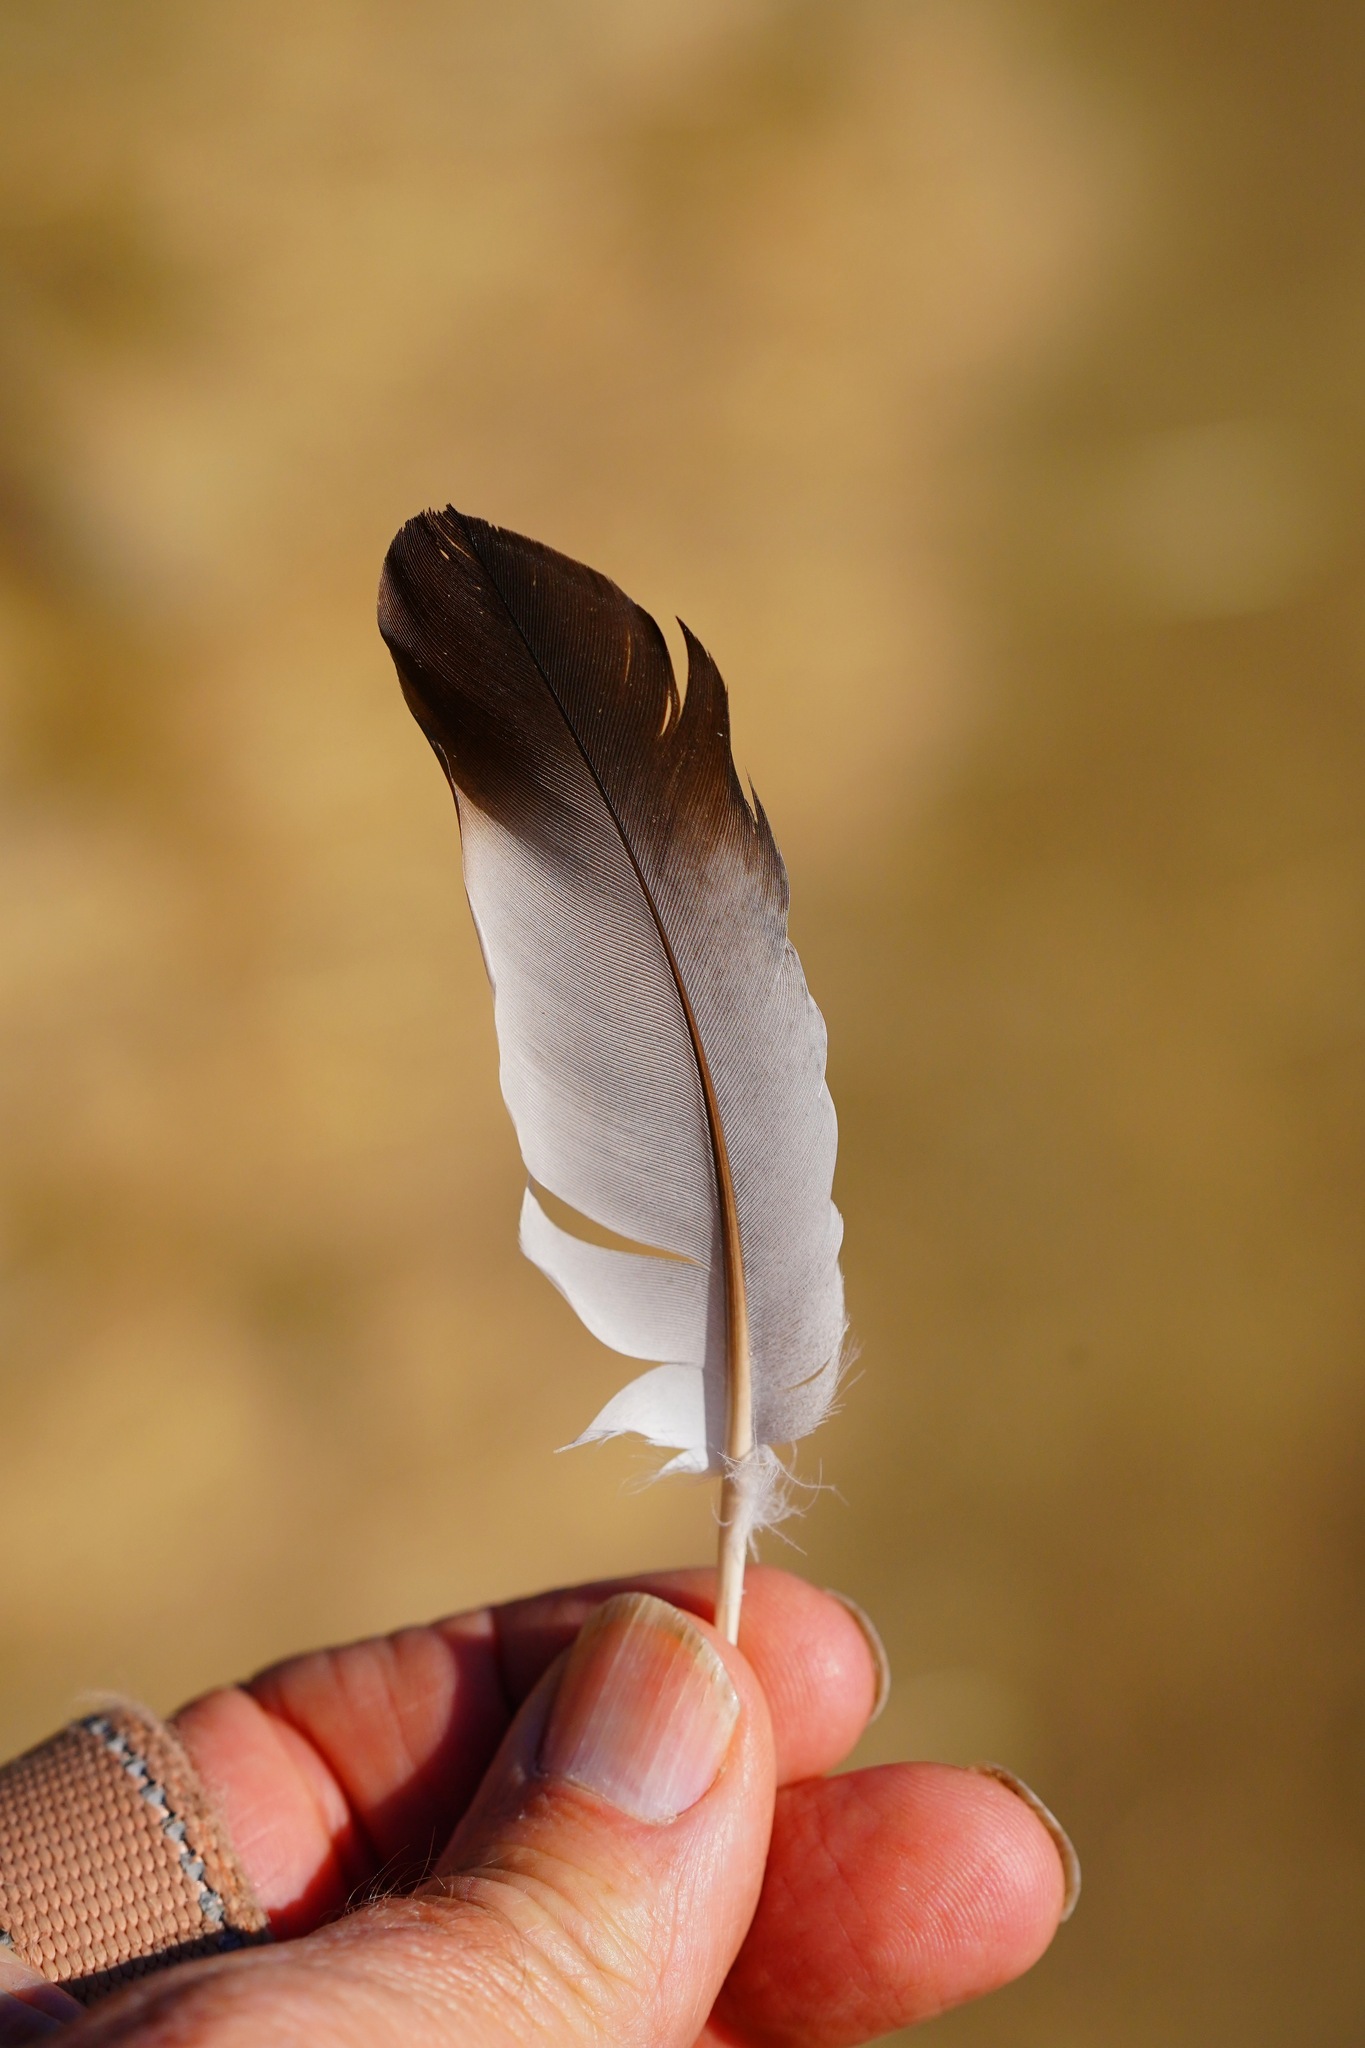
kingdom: Animalia
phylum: Chordata
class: Aves
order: Columbiformes
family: Columbidae
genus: Columba
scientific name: Columba livia
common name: Rock pigeon
